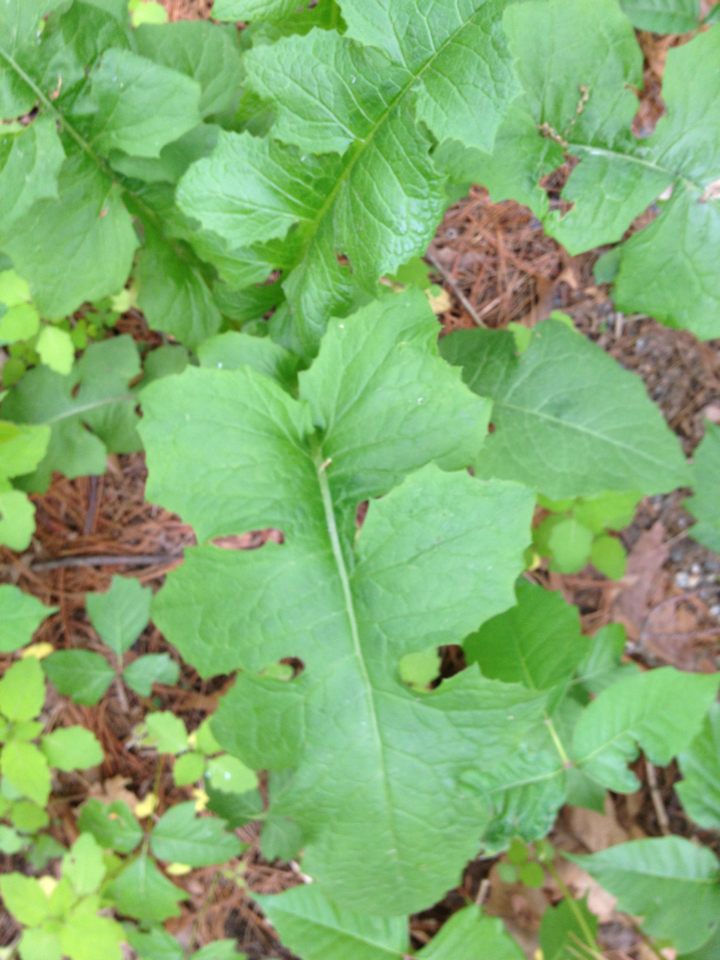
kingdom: Plantae
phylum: Tracheophyta
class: Magnoliopsida
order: Asterales
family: Asteraceae
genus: Lactuca
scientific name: Lactuca biennis
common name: Blue wood lettuce
